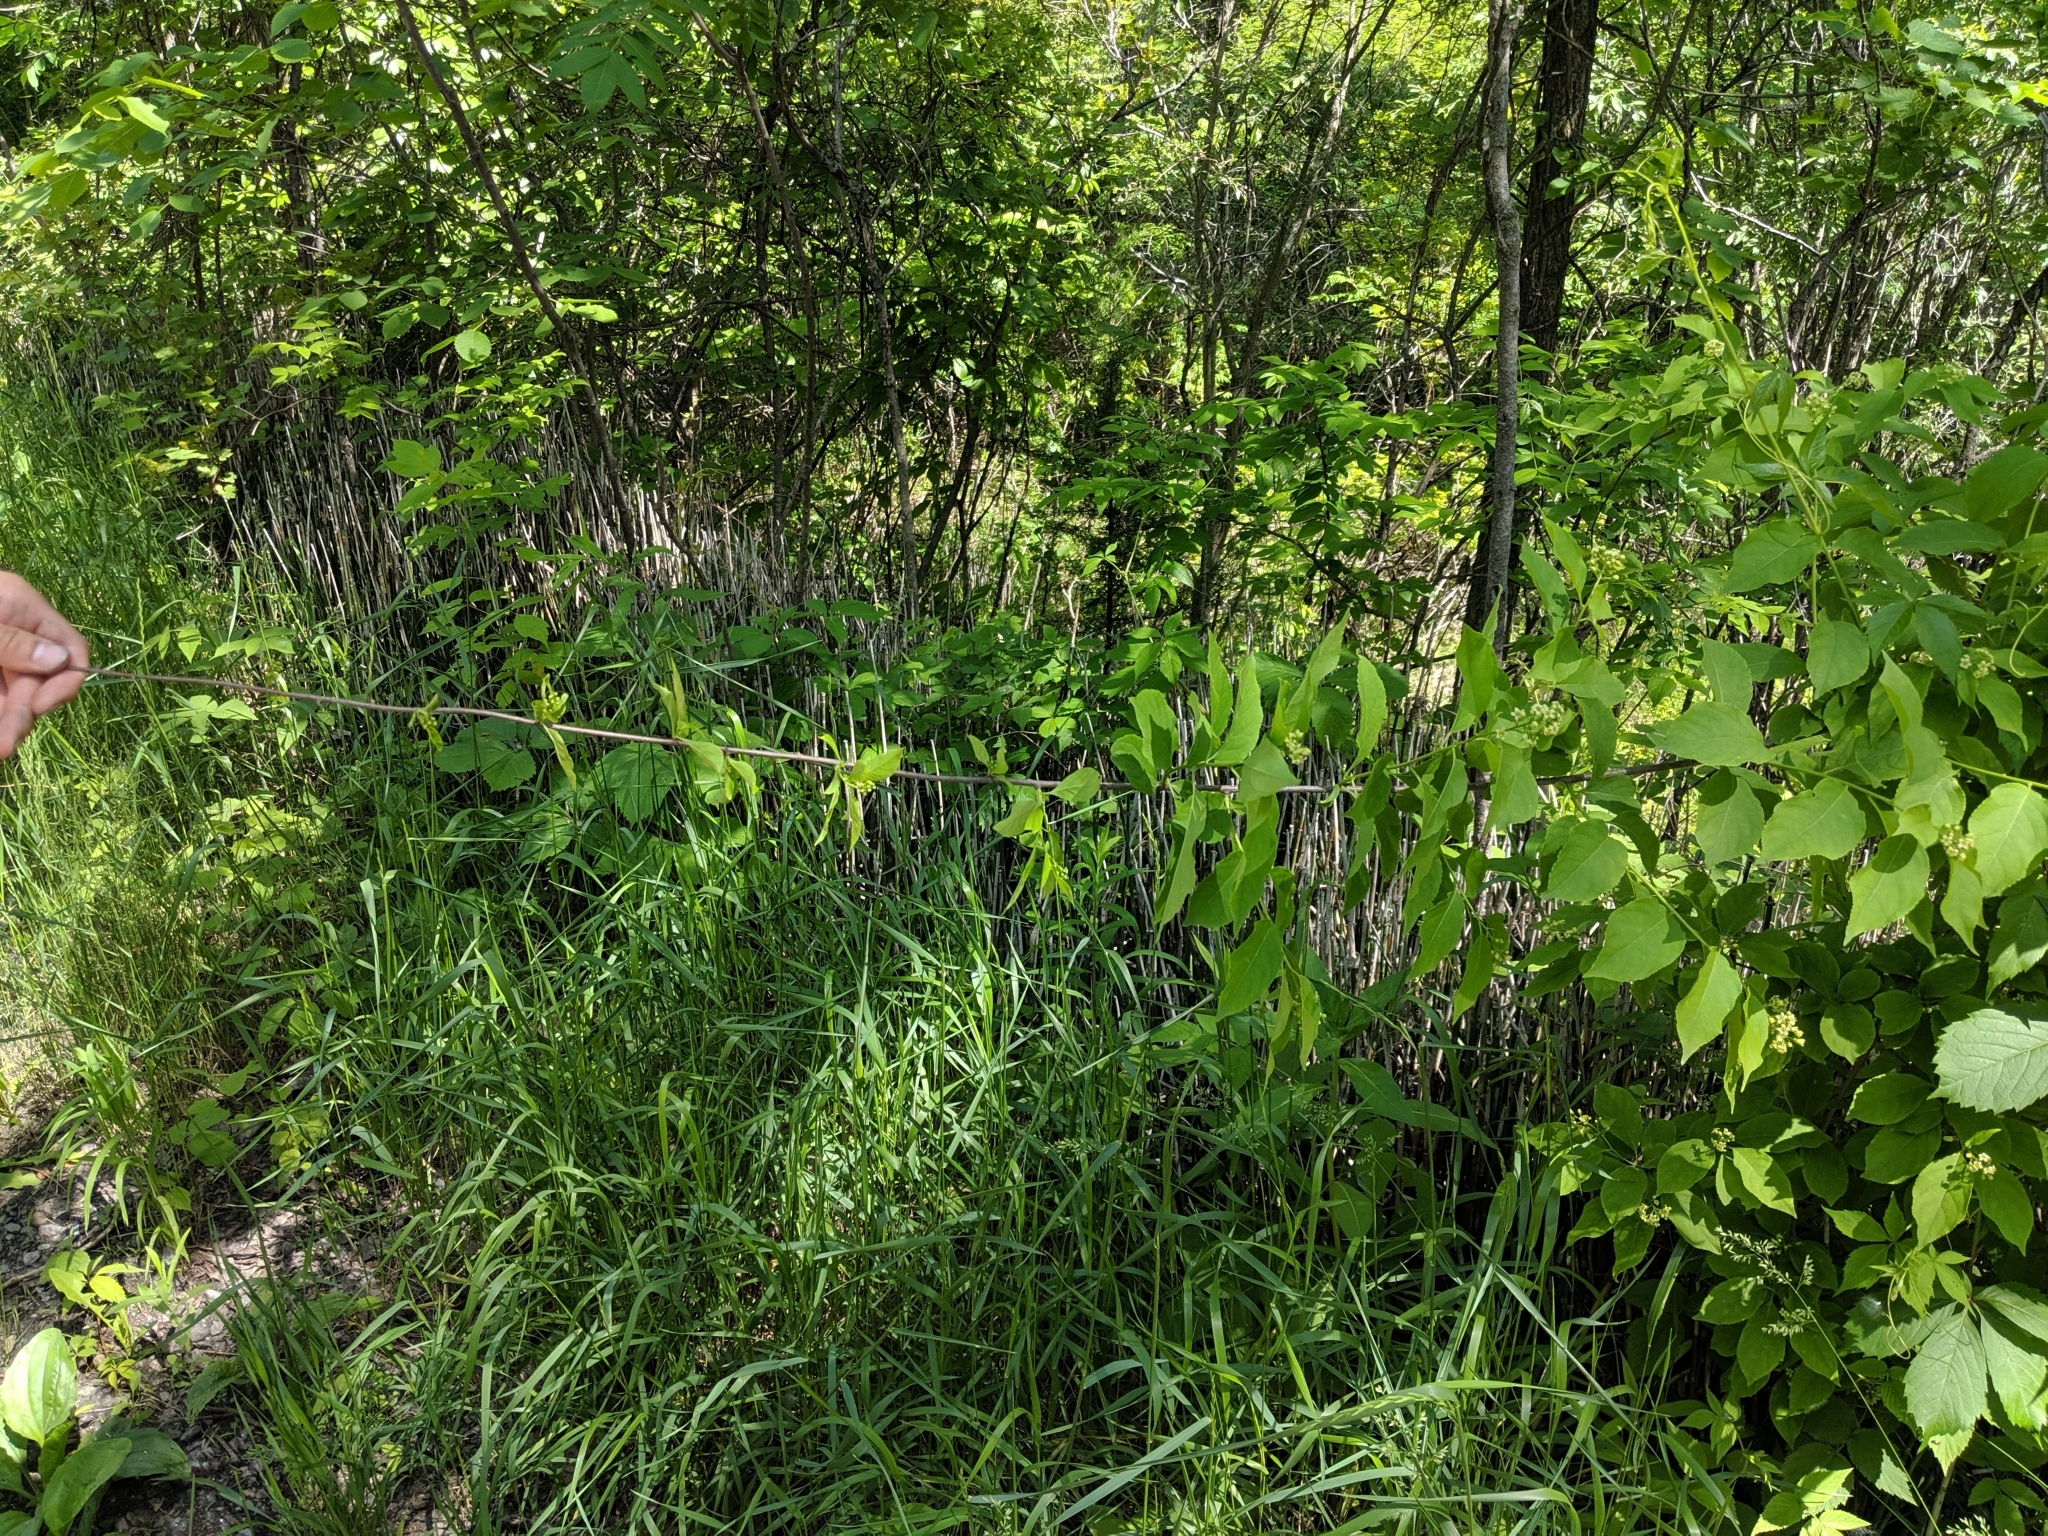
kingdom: Plantae
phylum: Tracheophyta
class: Magnoliopsida
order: Celastrales
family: Celastraceae
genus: Celastrus
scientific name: Celastrus scandens
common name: American bittersweet
